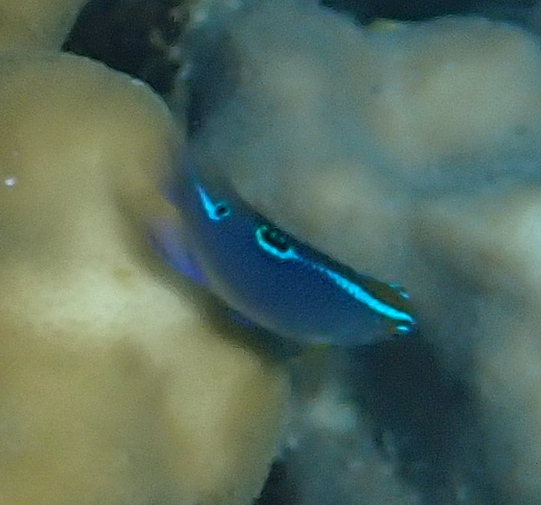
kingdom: Animalia
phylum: Chordata
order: Perciformes
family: Pomacentridae
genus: Chrysiptera
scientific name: Chrysiptera unimaculata
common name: Onespot demoiselle
